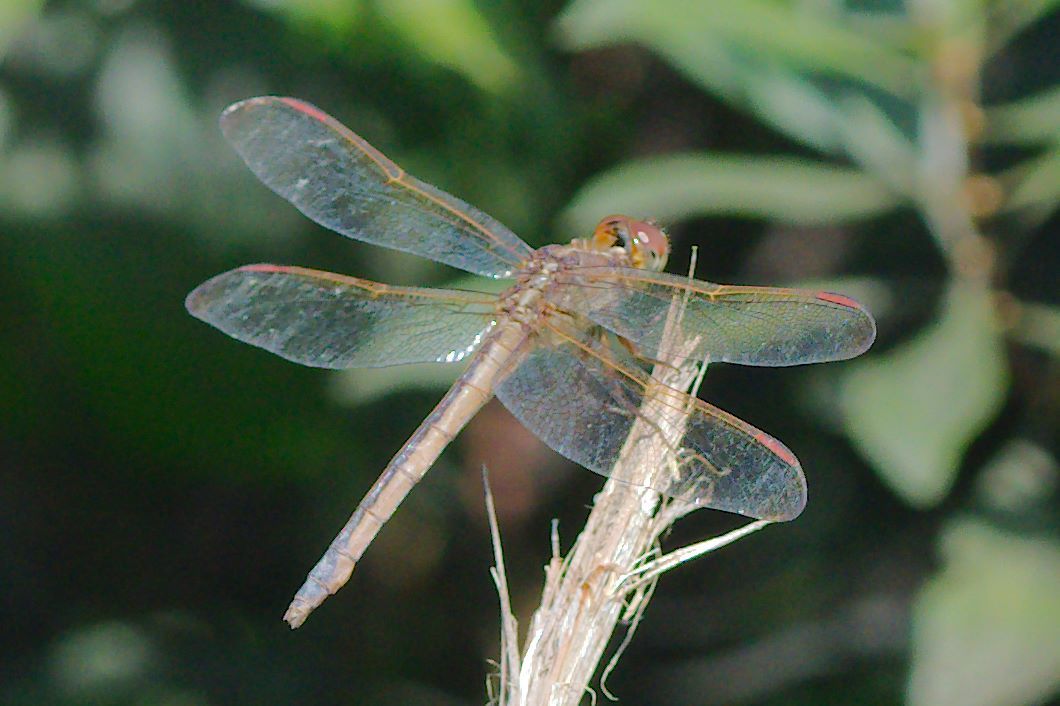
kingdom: Animalia
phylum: Arthropoda
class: Insecta
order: Odonata
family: Libellulidae
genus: Libellula
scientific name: Libellula needhami
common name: Needham's skimmer
